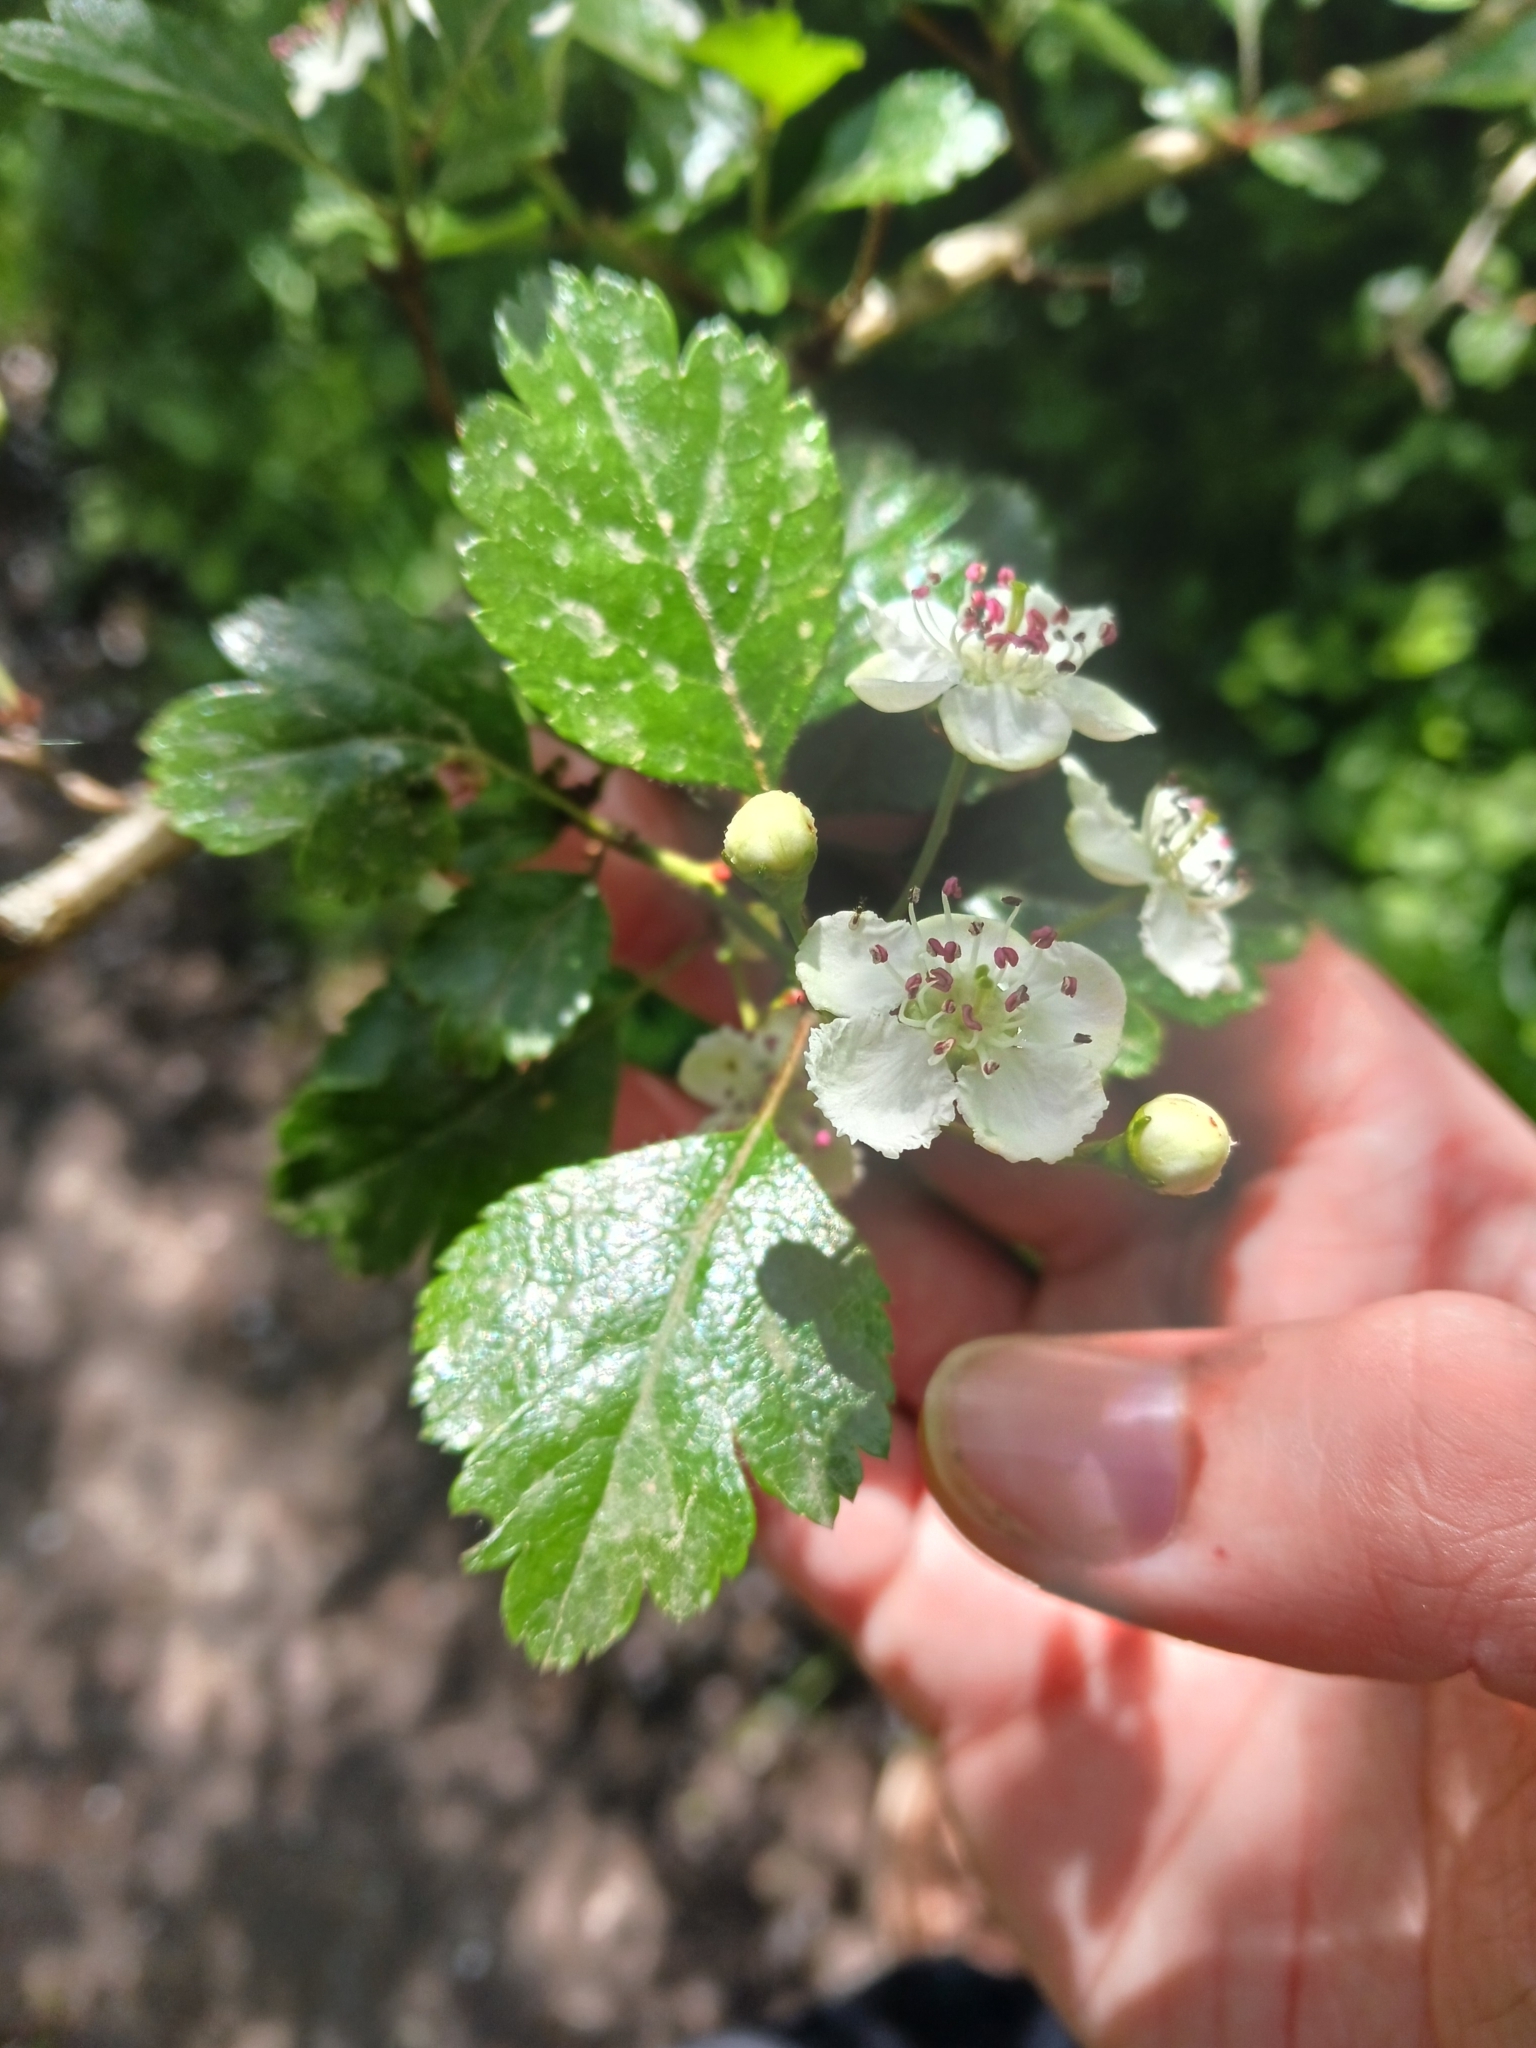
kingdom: Plantae
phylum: Tracheophyta
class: Magnoliopsida
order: Rosales
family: Rosaceae
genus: Crataegus
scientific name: Crataegus laevigata
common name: Midland hawthorn
